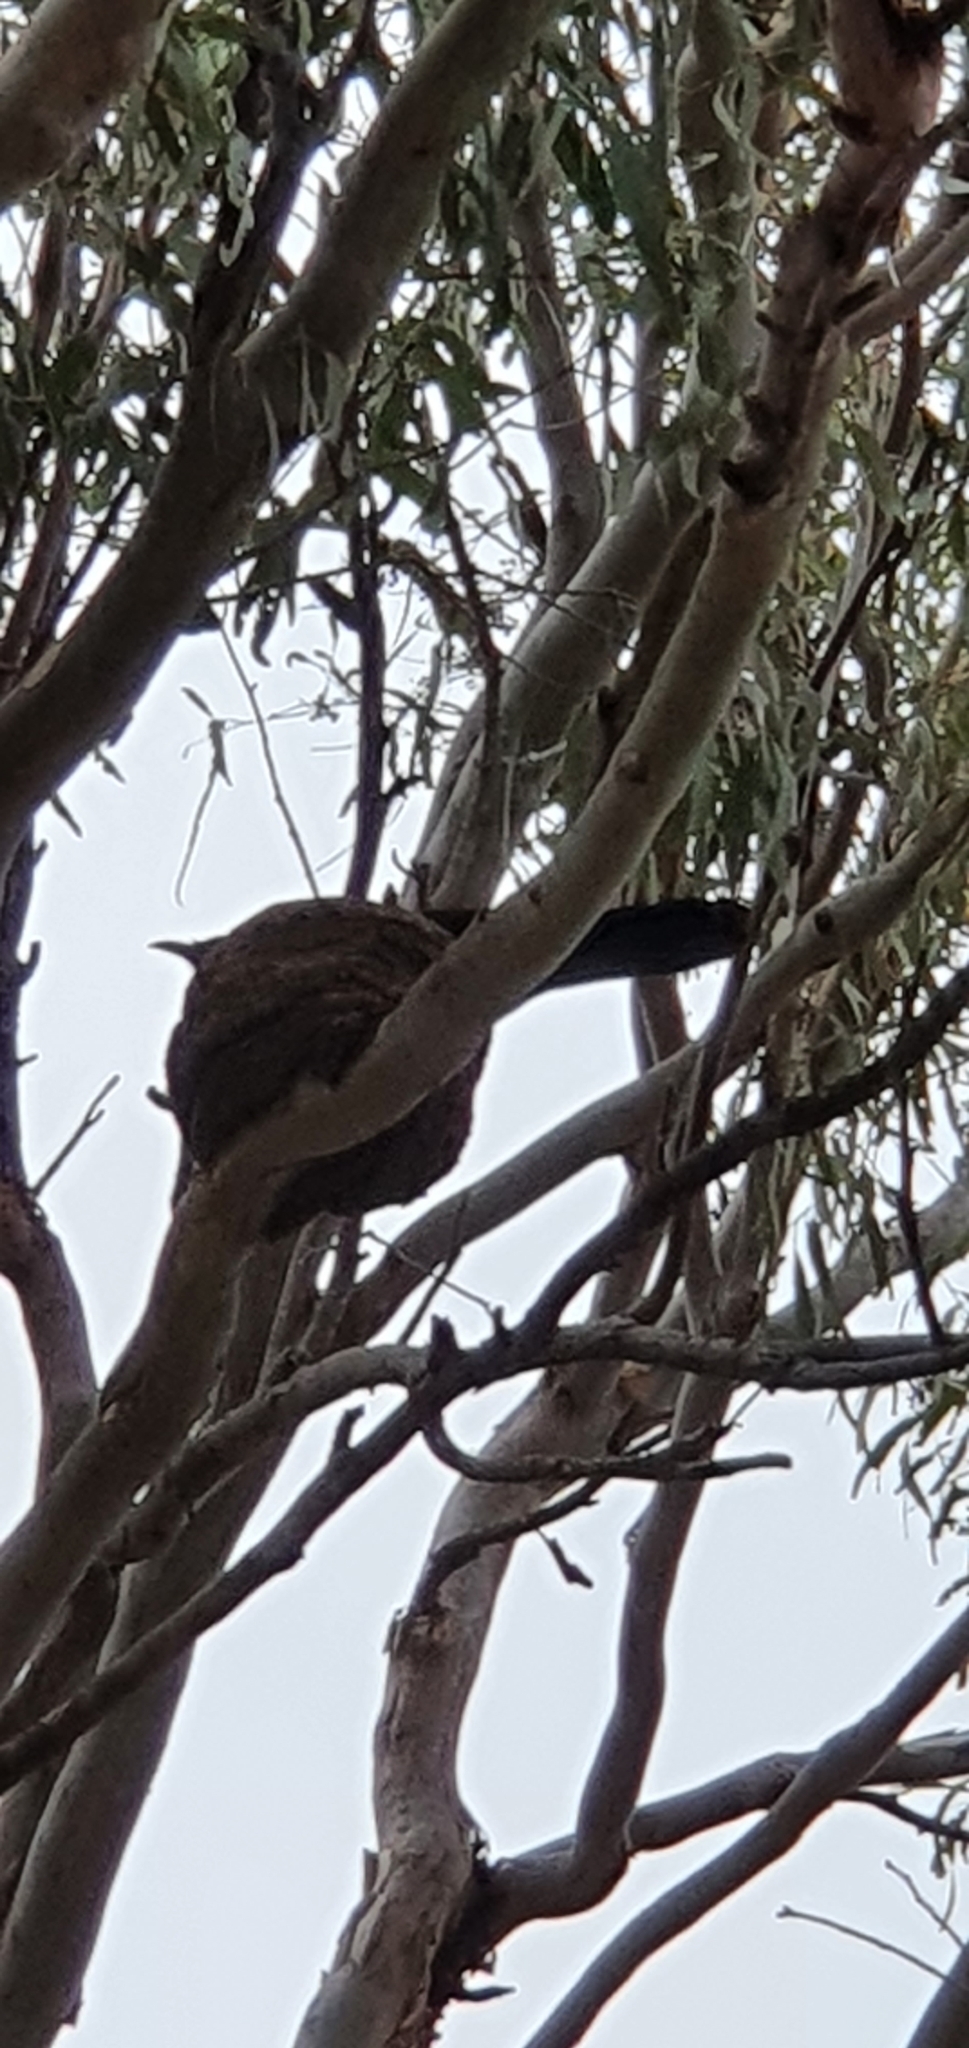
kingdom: Animalia
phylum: Chordata
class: Aves
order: Passeriformes
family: Corcoracidae
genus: Corcorax
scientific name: Corcorax melanoramphos
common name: White-winged chough
